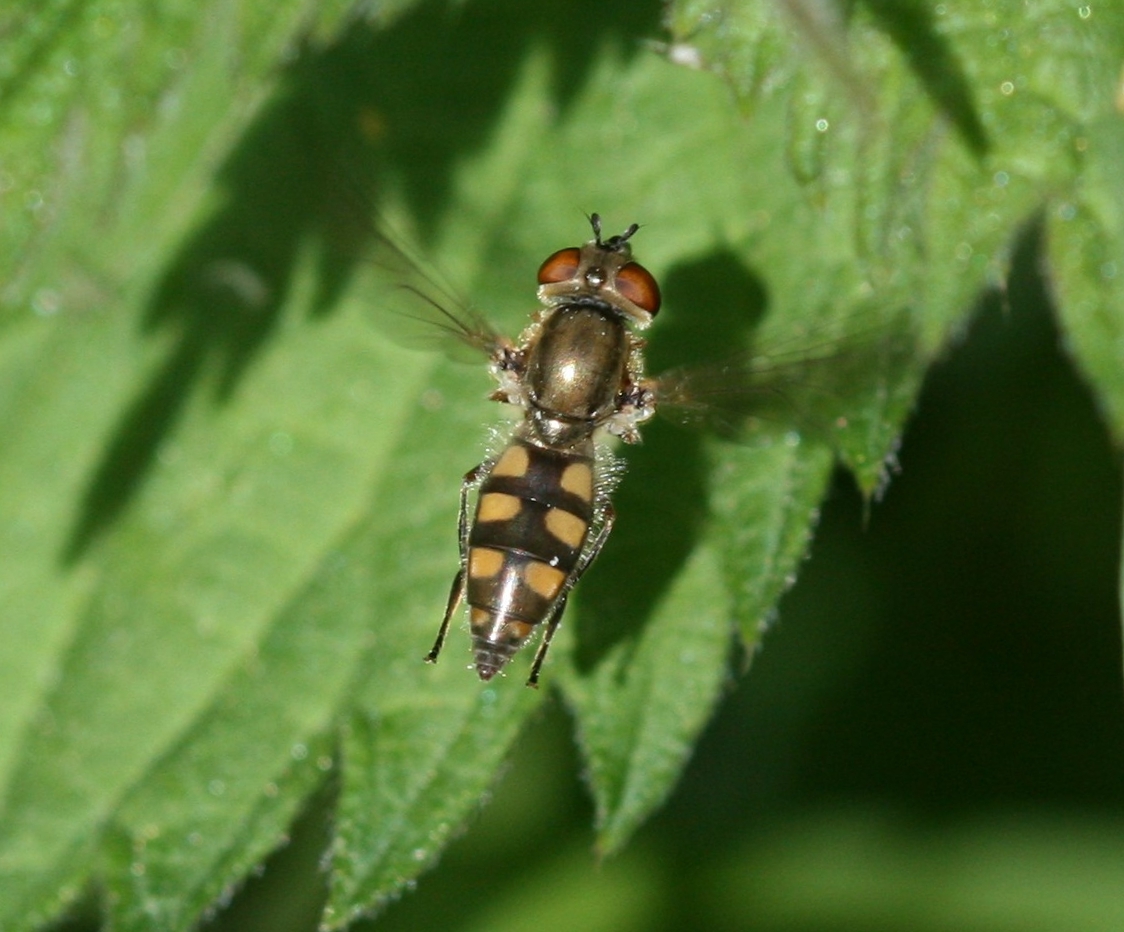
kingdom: Animalia
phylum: Arthropoda
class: Insecta
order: Diptera
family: Syrphidae
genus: Platycheirus
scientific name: Platycheirus manicatus
